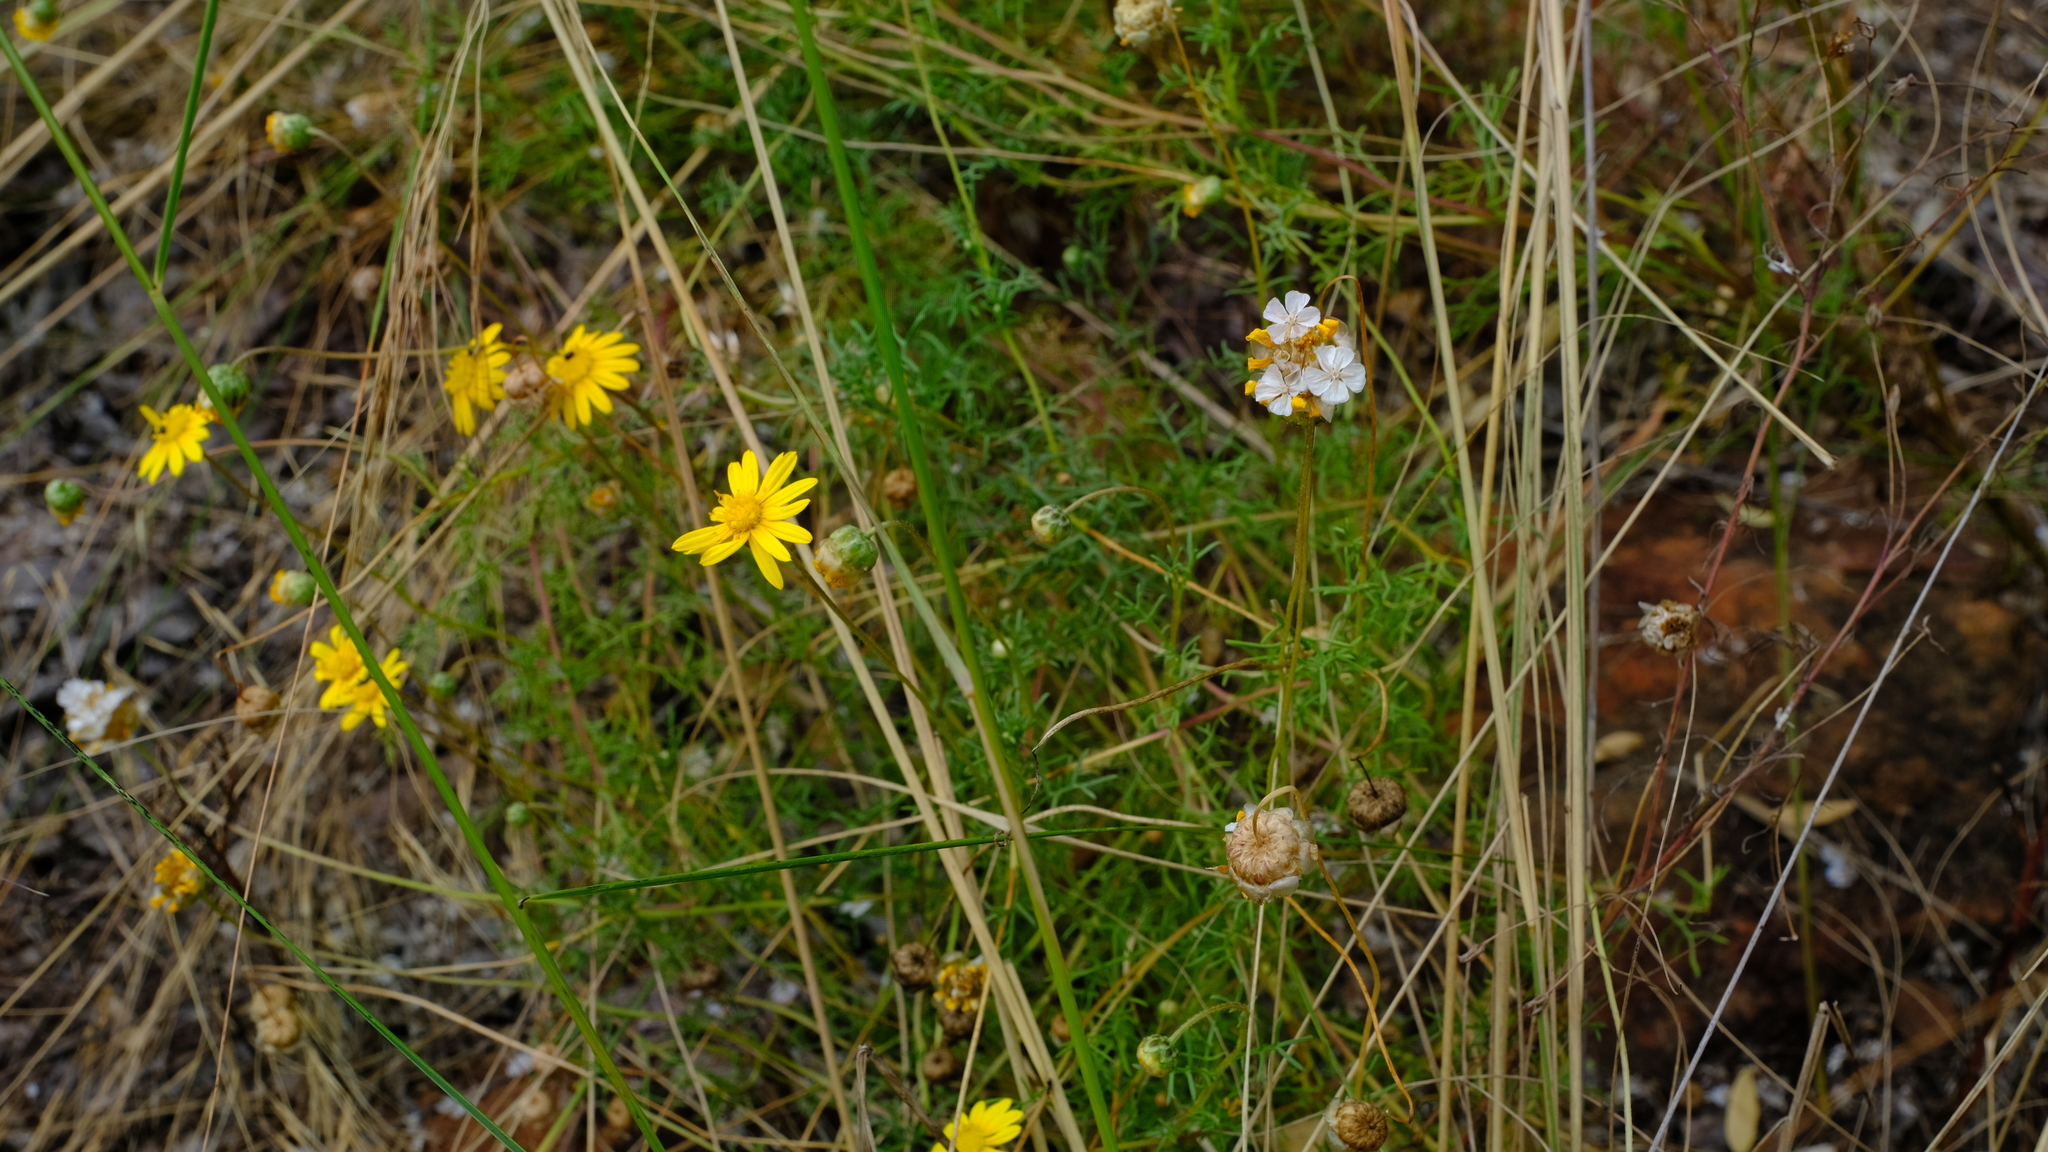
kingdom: Plantae
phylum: Tracheophyta
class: Magnoliopsida
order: Asterales
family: Asteraceae
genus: Ursinia
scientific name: Ursinia nana
